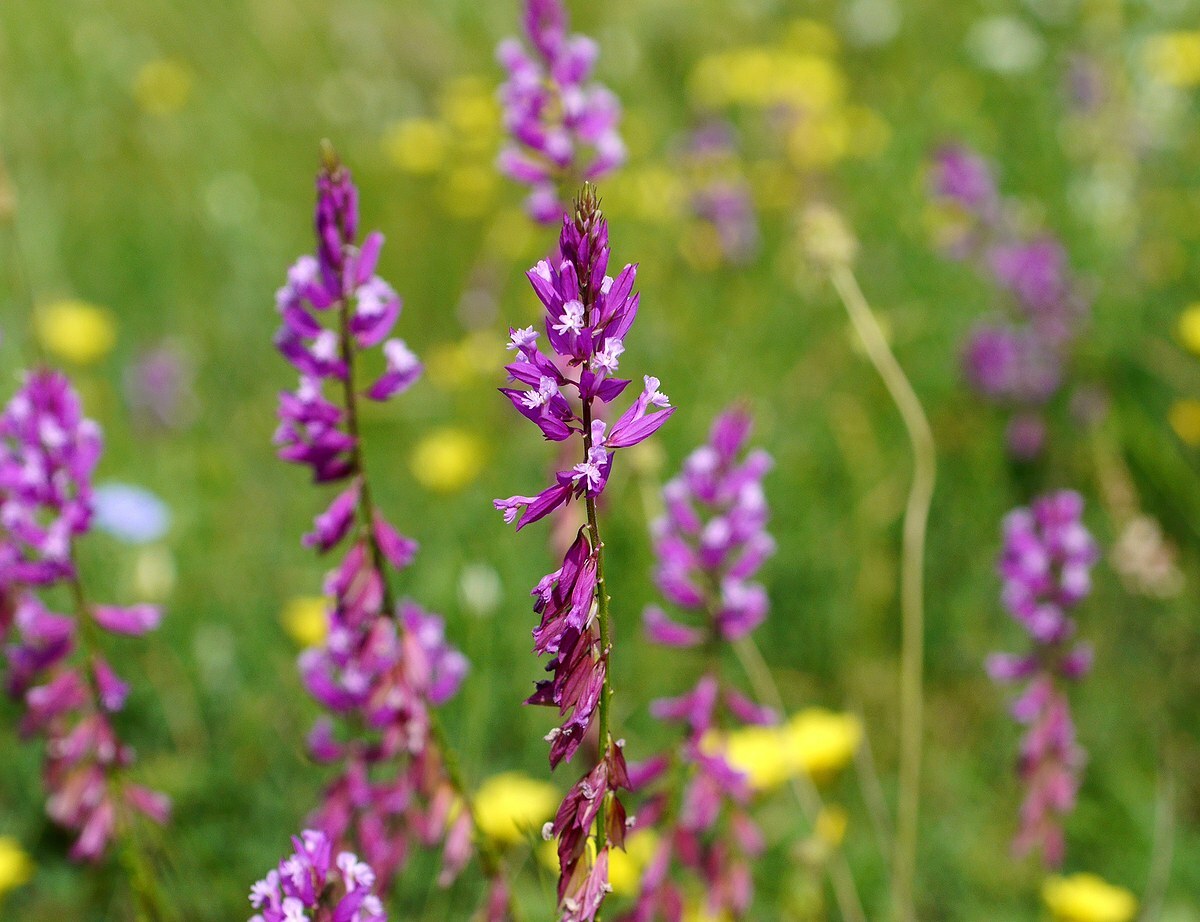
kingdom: Plantae
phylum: Tracheophyta
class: Magnoliopsida
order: Fabales
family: Polygalaceae
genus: Polygala
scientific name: Polygala major
